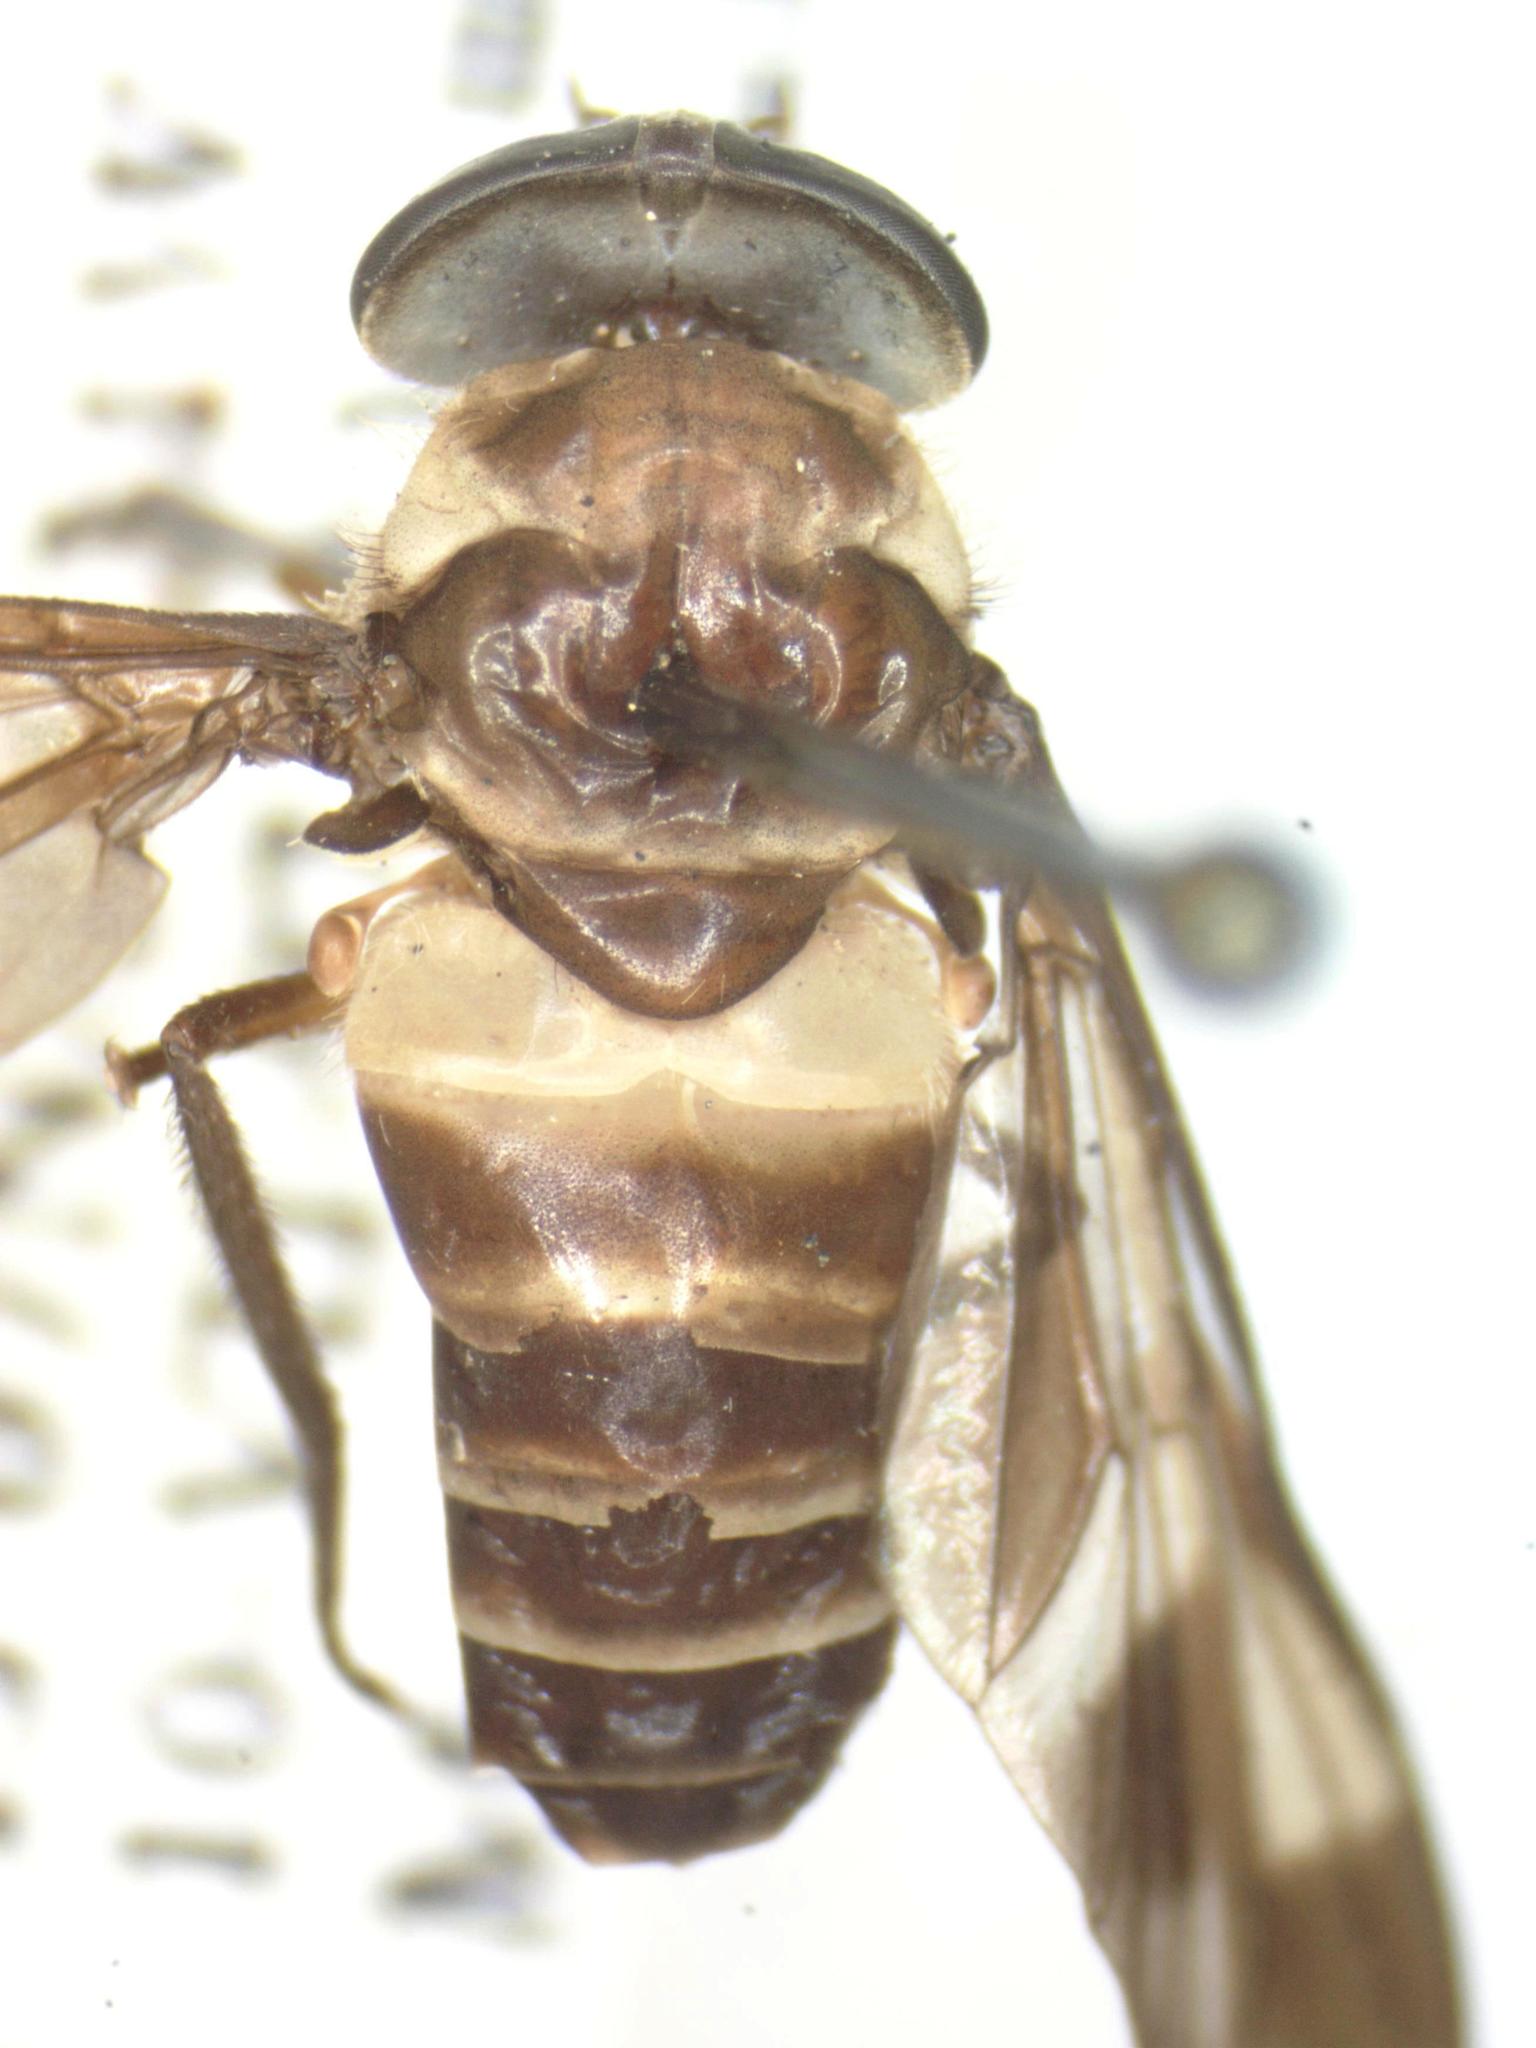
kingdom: Animalia
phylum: Arthropoda
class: Insecta
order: Diptera
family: Tabanidae
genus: Dichelacera
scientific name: Dichelacera fasciata
